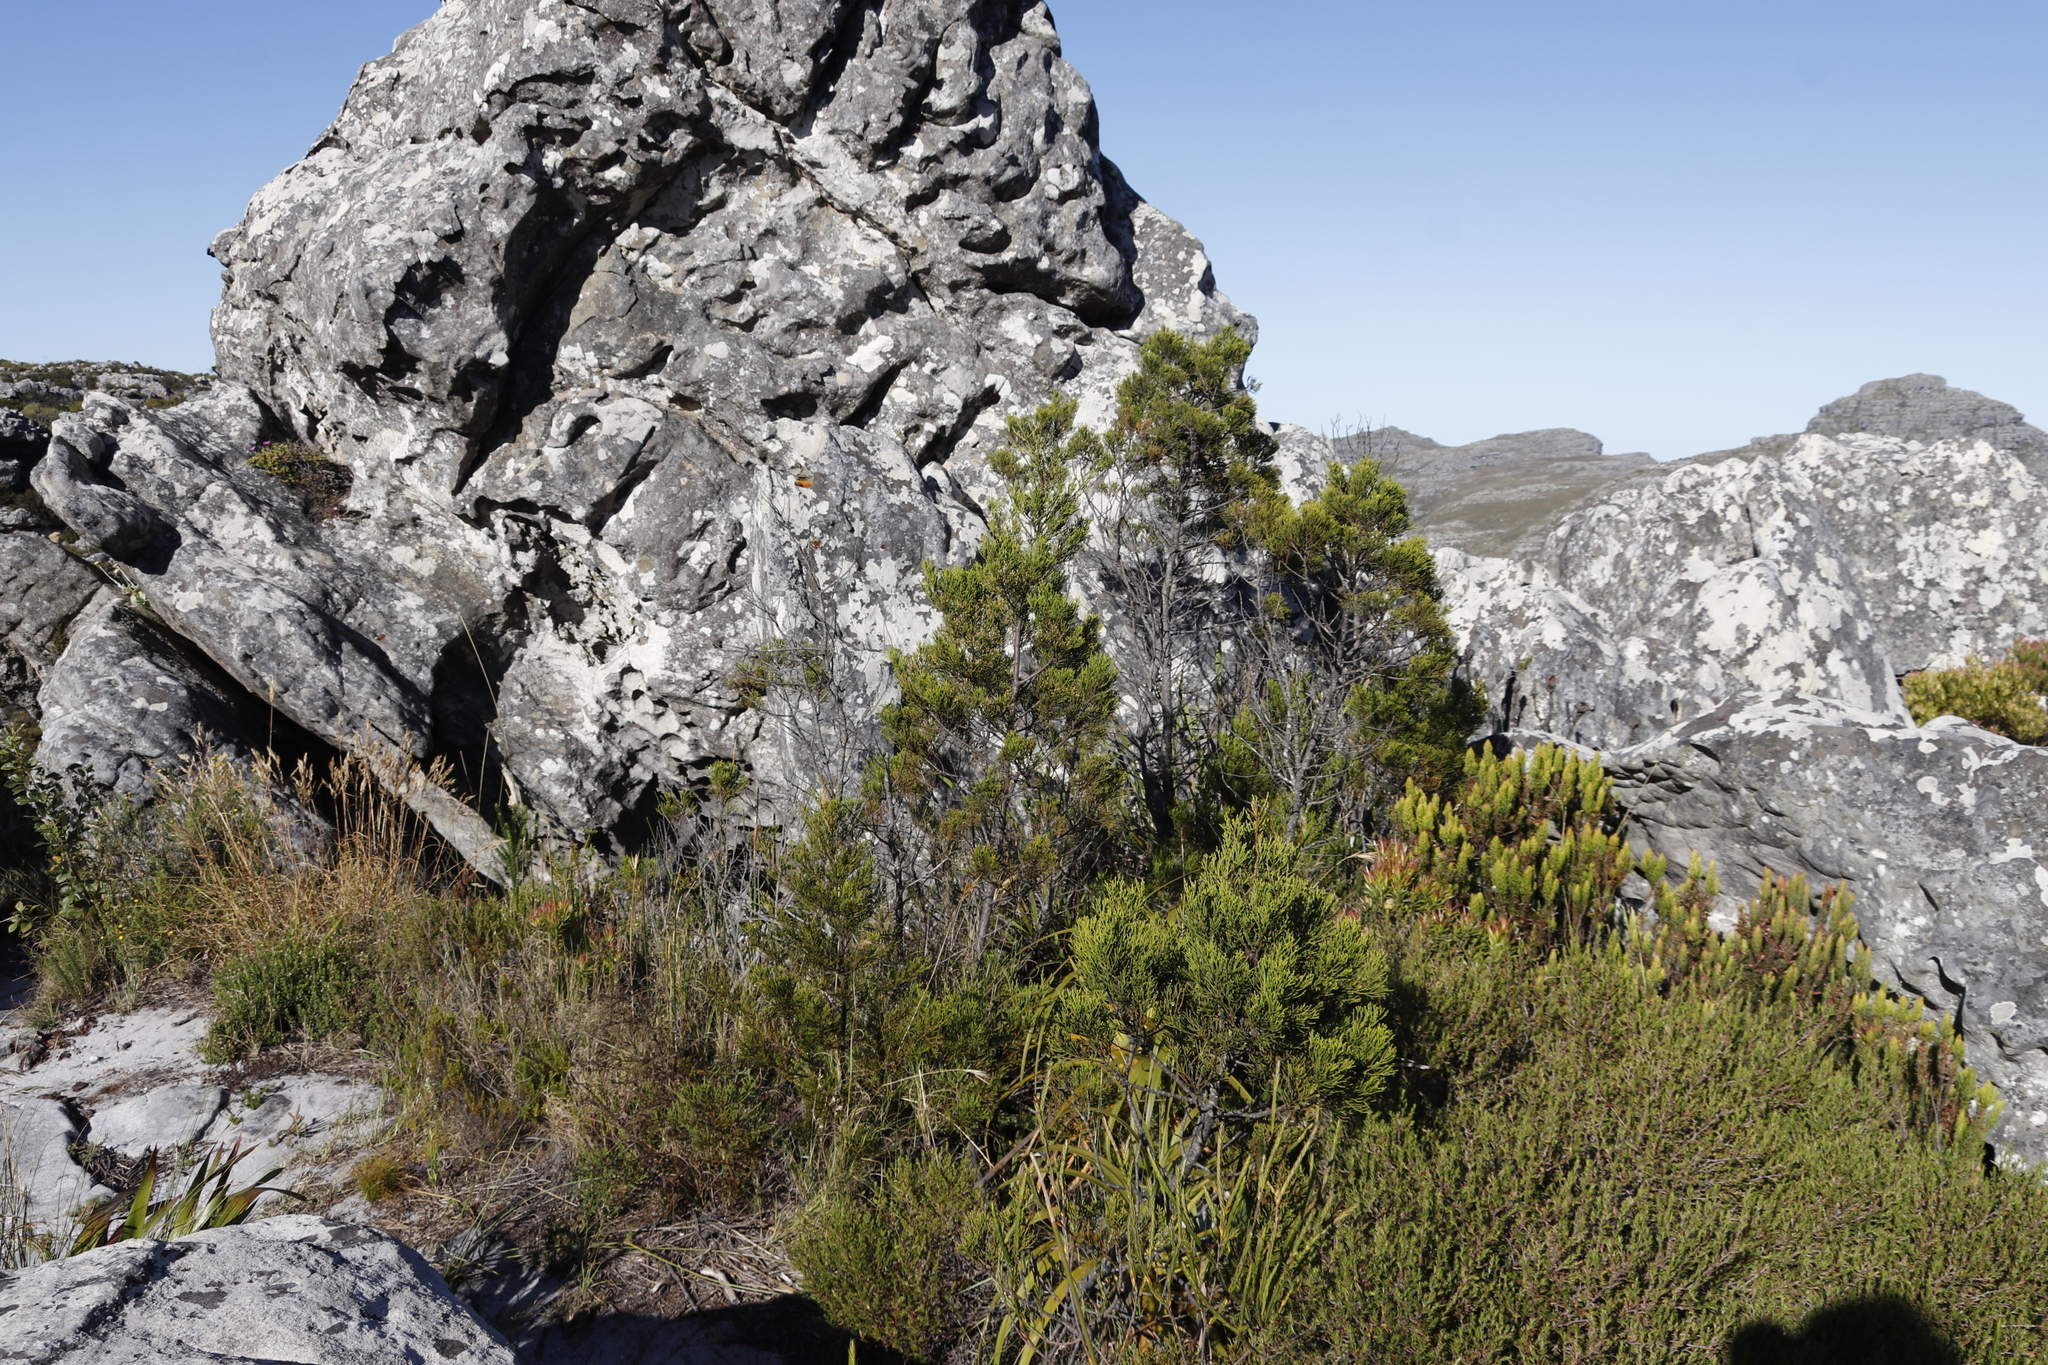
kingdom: Plantae
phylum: Tracheophyta
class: Pinopsida
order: Pinales
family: Cupressaceae
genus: Widdringtonia
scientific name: Widdringtonia nodiflora
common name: Cape cypress
